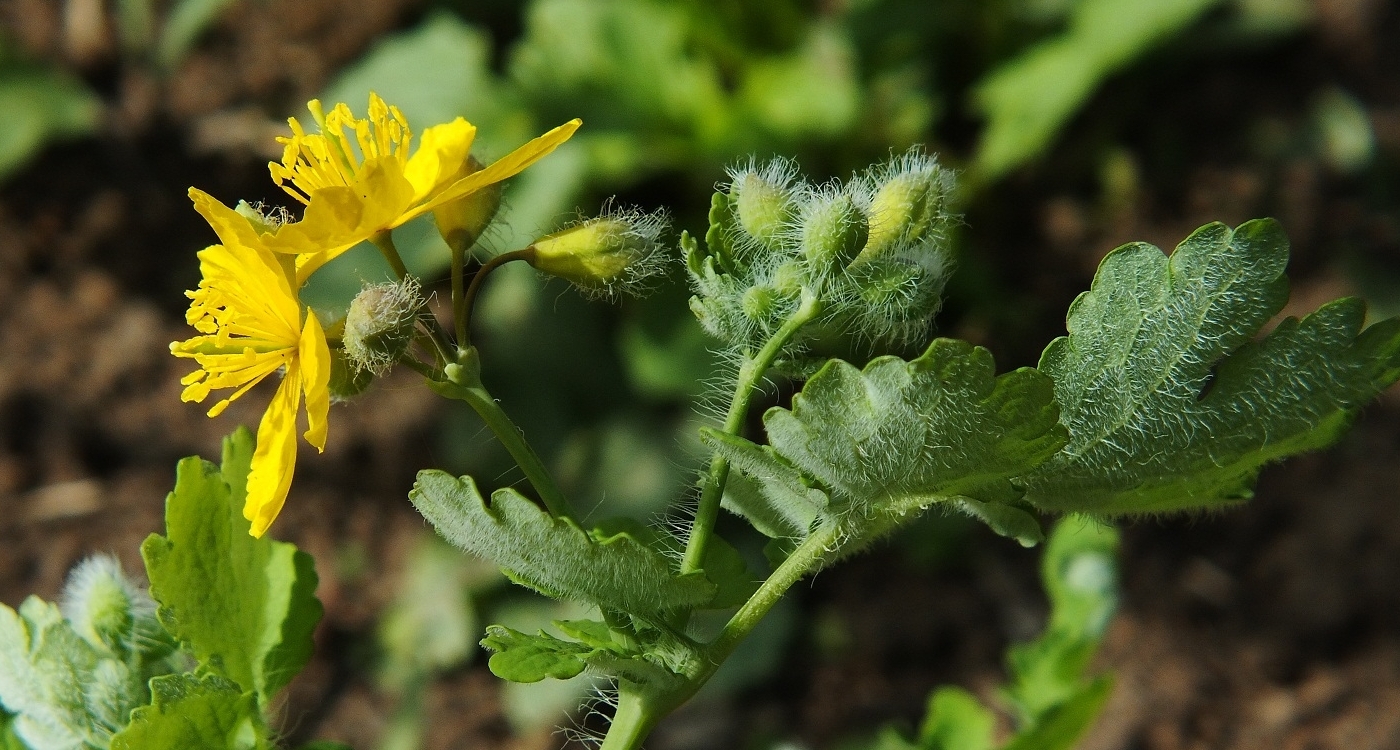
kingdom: Plantae
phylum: Tracheophyta
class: Magnoliopsida
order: Ranunculales
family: Papaveraceae
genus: Chelidonium
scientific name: Chelidonium majus
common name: Greater celandine
